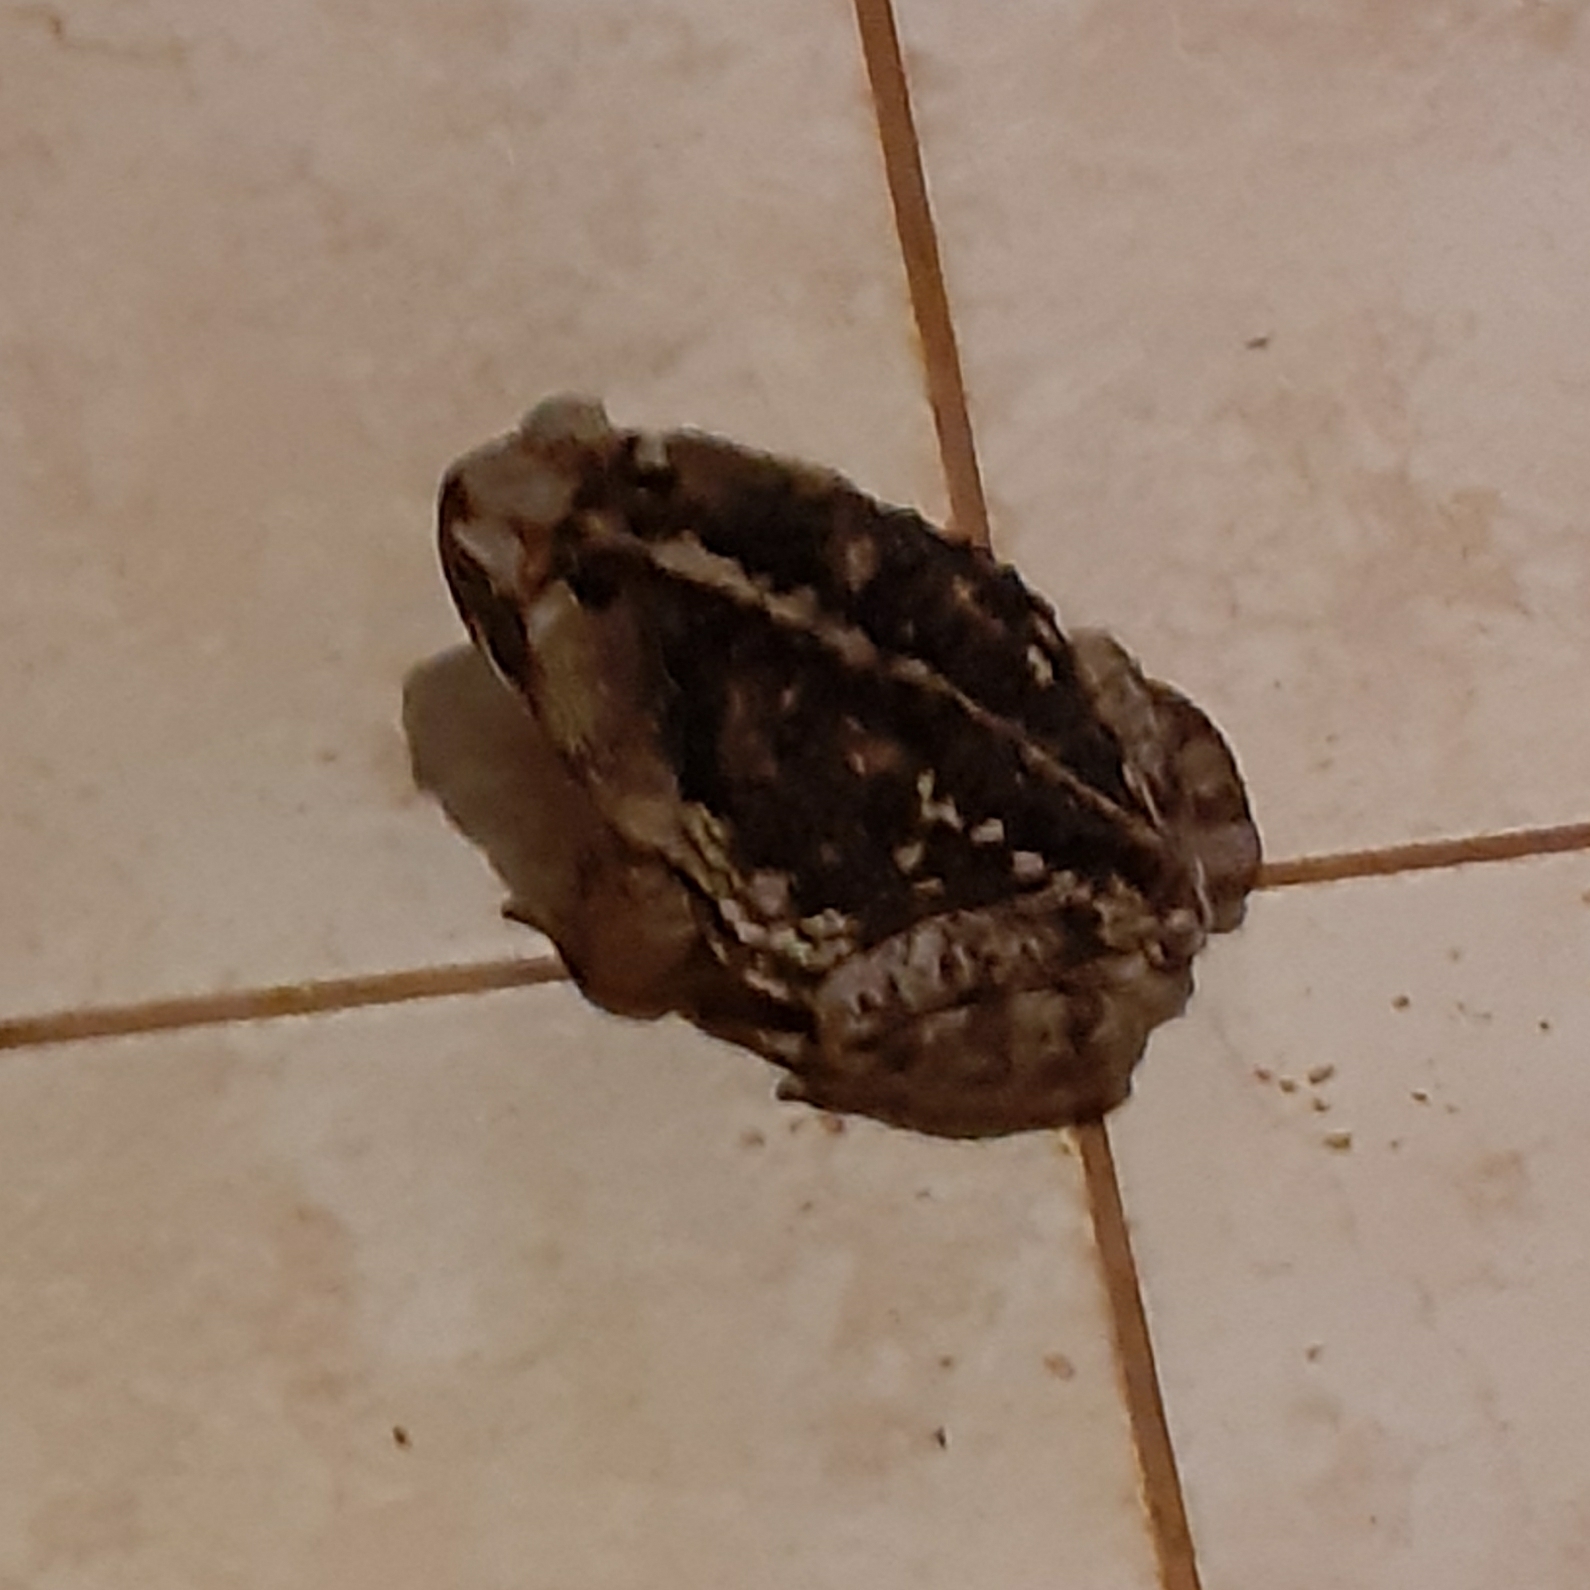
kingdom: Animalia
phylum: Chordata
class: Amphibia
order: Anura
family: Bufonidae
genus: Rhinella
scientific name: Rhinella diptycha
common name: Cope's toad
